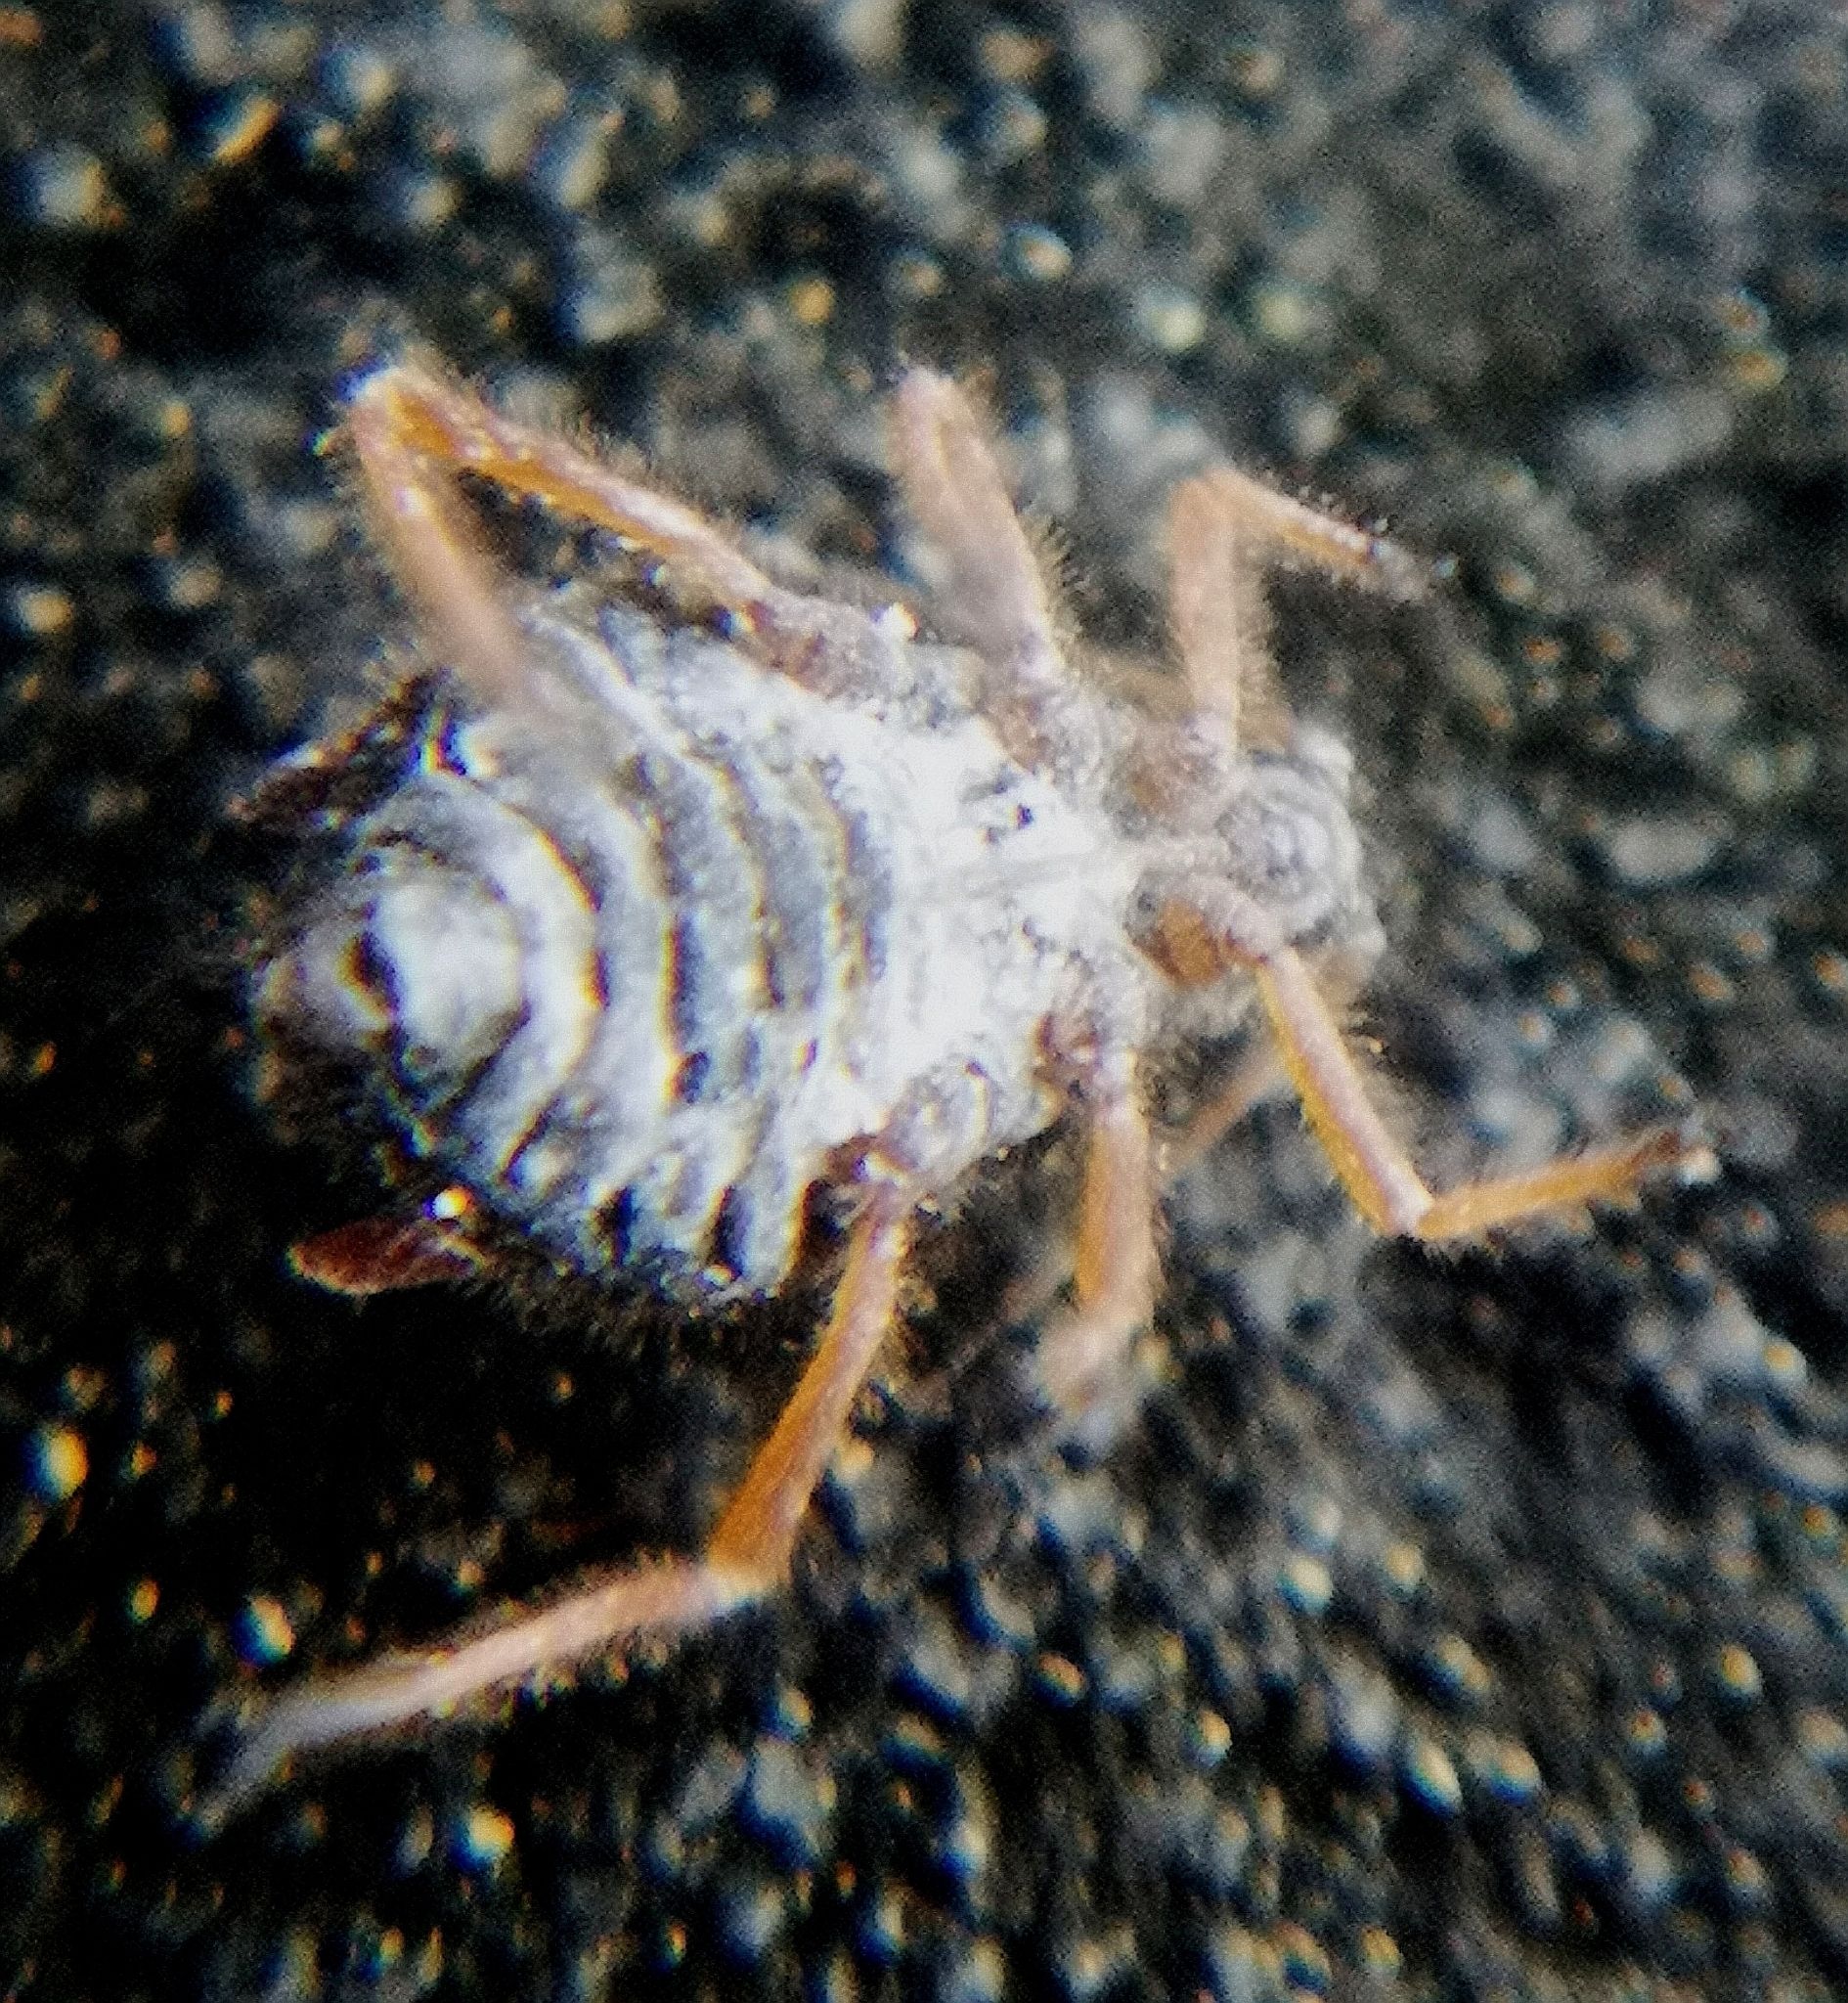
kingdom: Animalia
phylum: Arthropoda
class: Insecta
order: Hemiptera
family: Aphididae
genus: Pterocomma
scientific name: Pterocomma salicis
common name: Aphid
